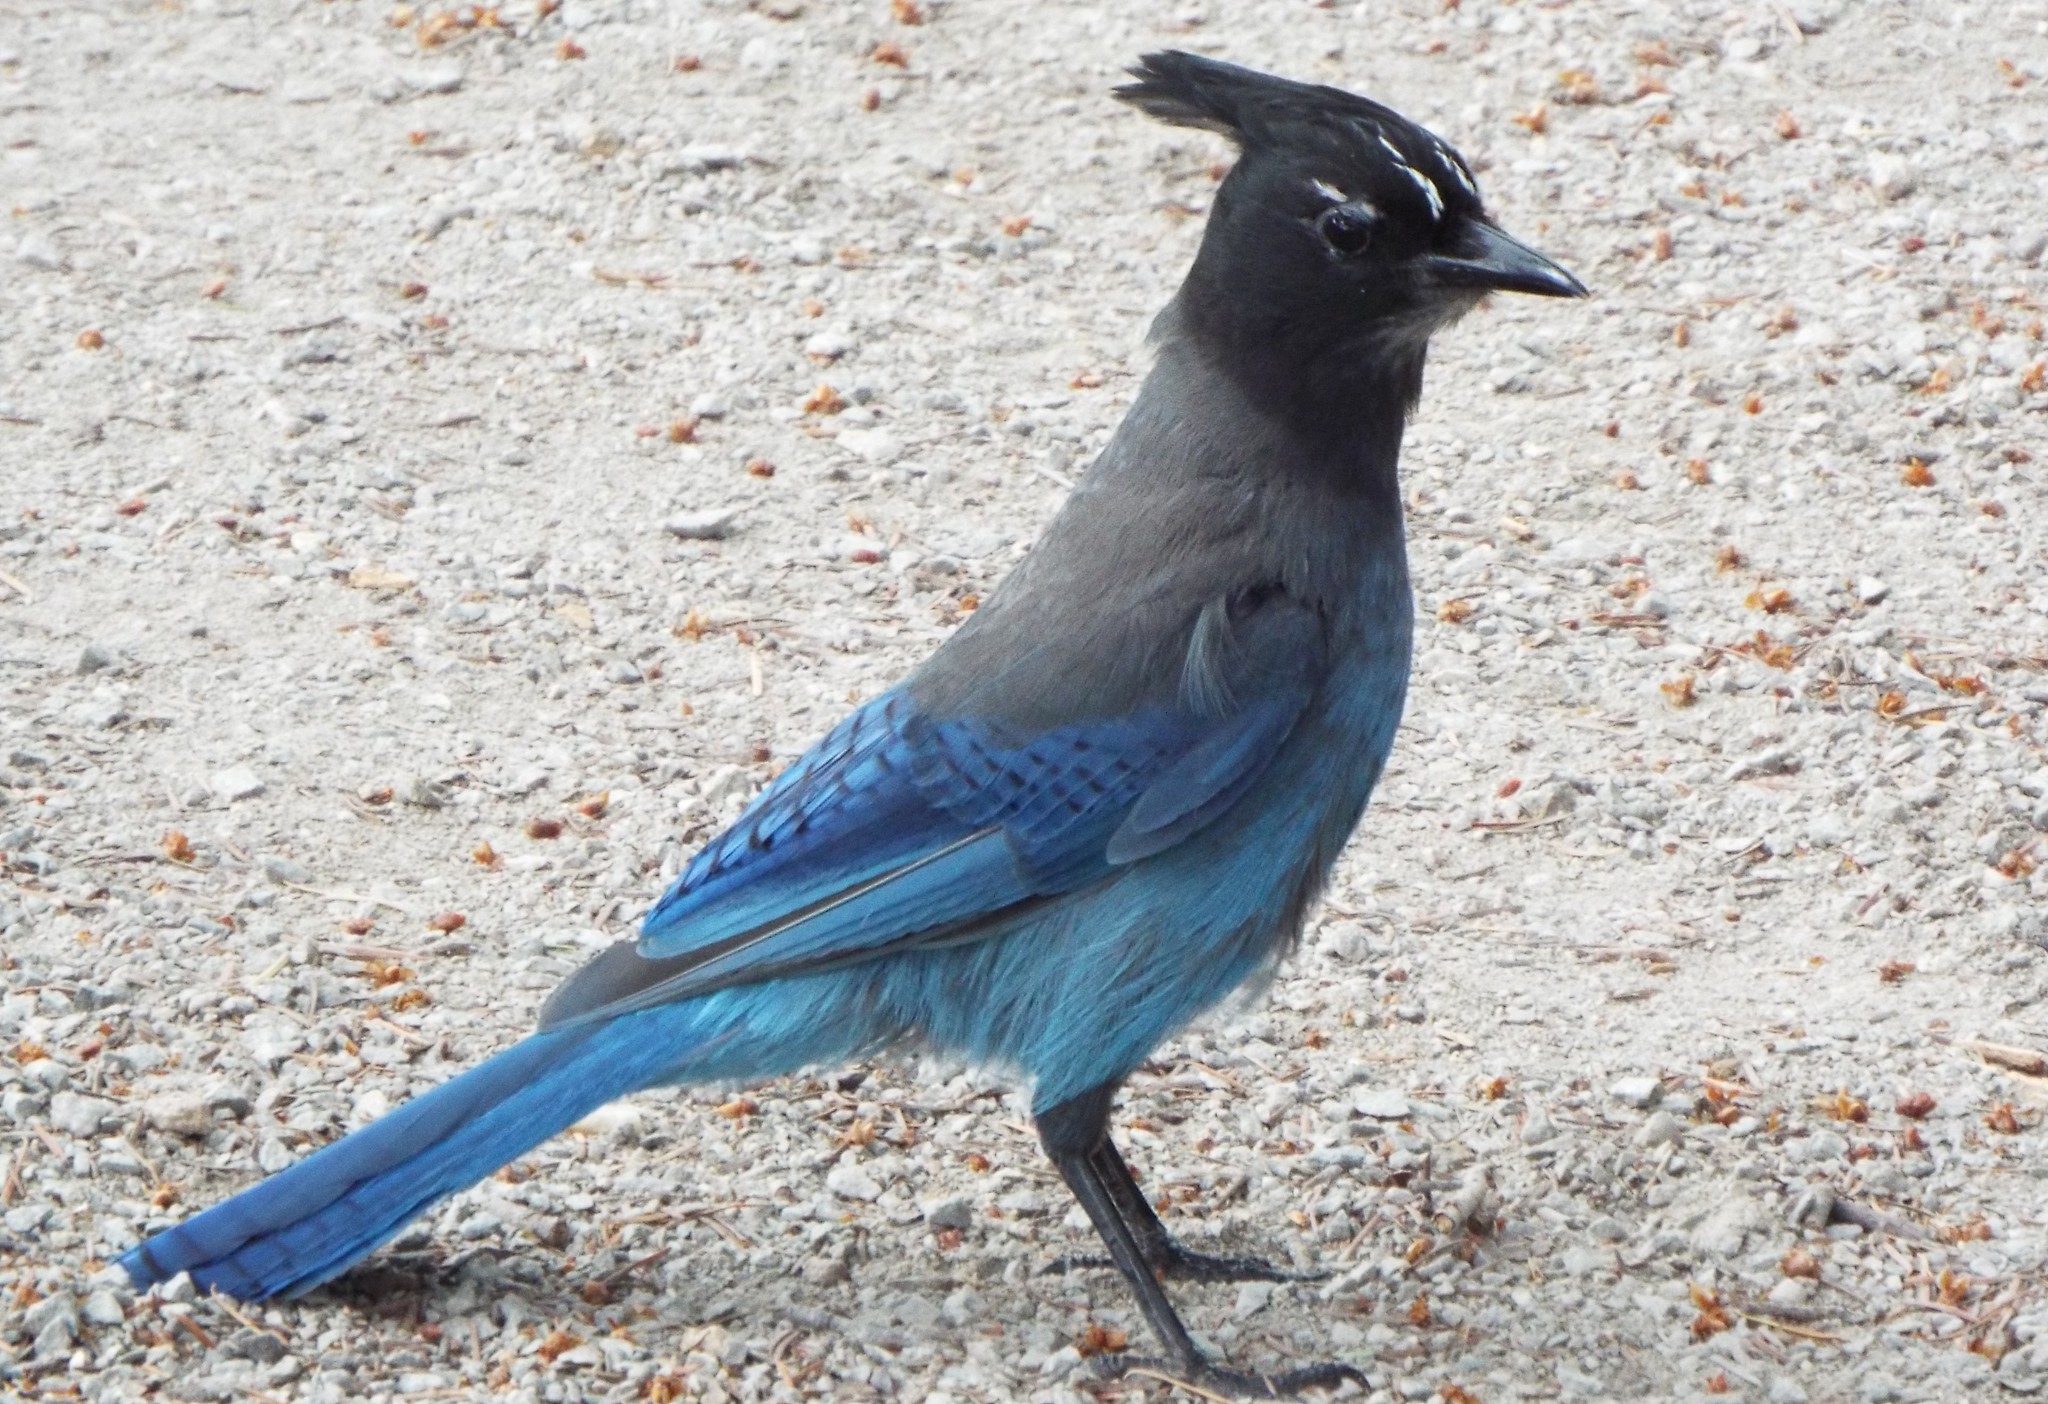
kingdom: Animalia
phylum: Chordata
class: Aves
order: Passeriformes
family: Corvidae
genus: Cyanocitta
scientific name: Cyanocitta stelleri
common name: Steller's jay
